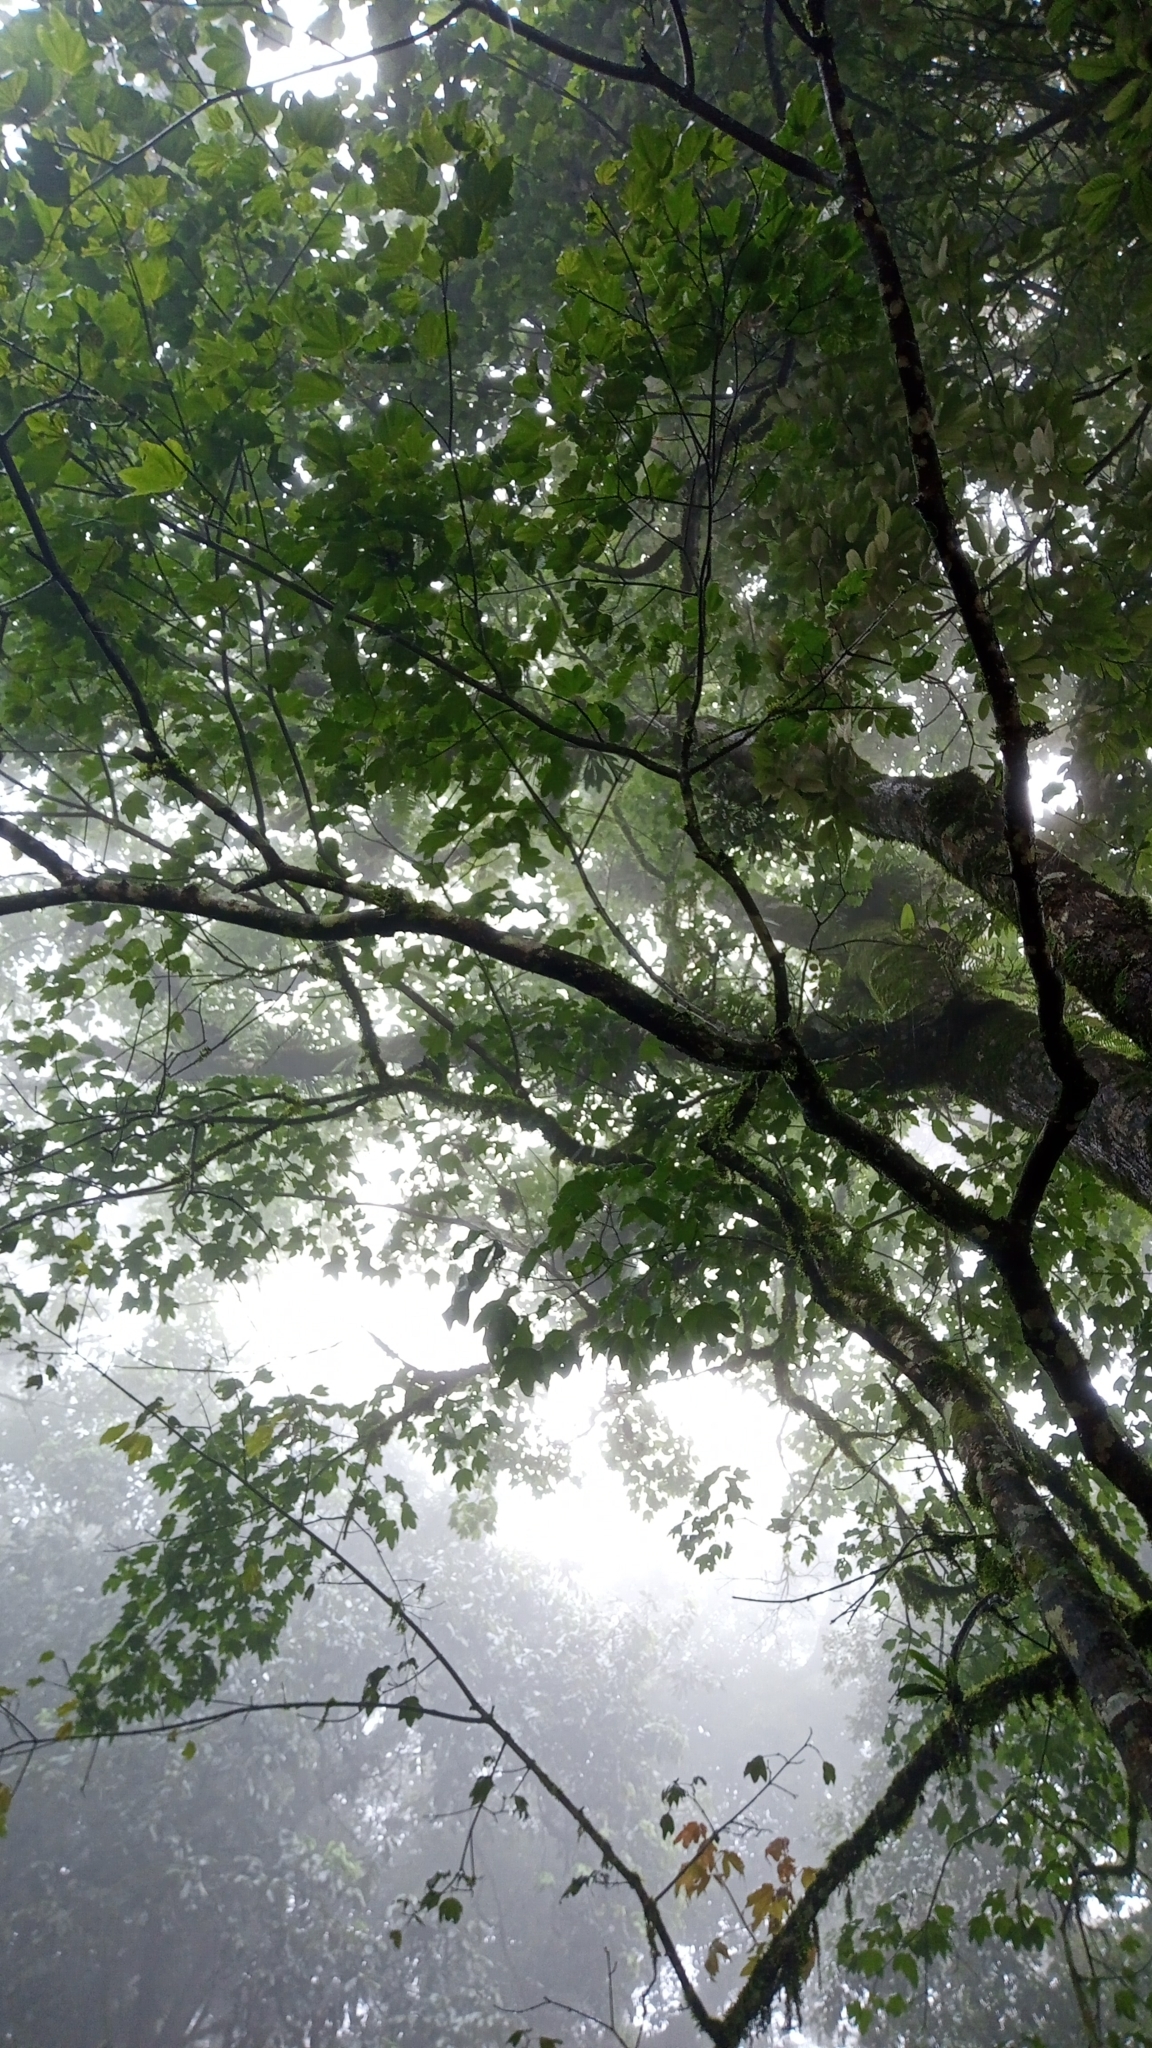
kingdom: Plantae
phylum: Tracheophyta
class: Magnoliopsida
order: Sapindales
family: Sapindaceae
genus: Acer
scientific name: Acer campbellii
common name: Campbell's maple
